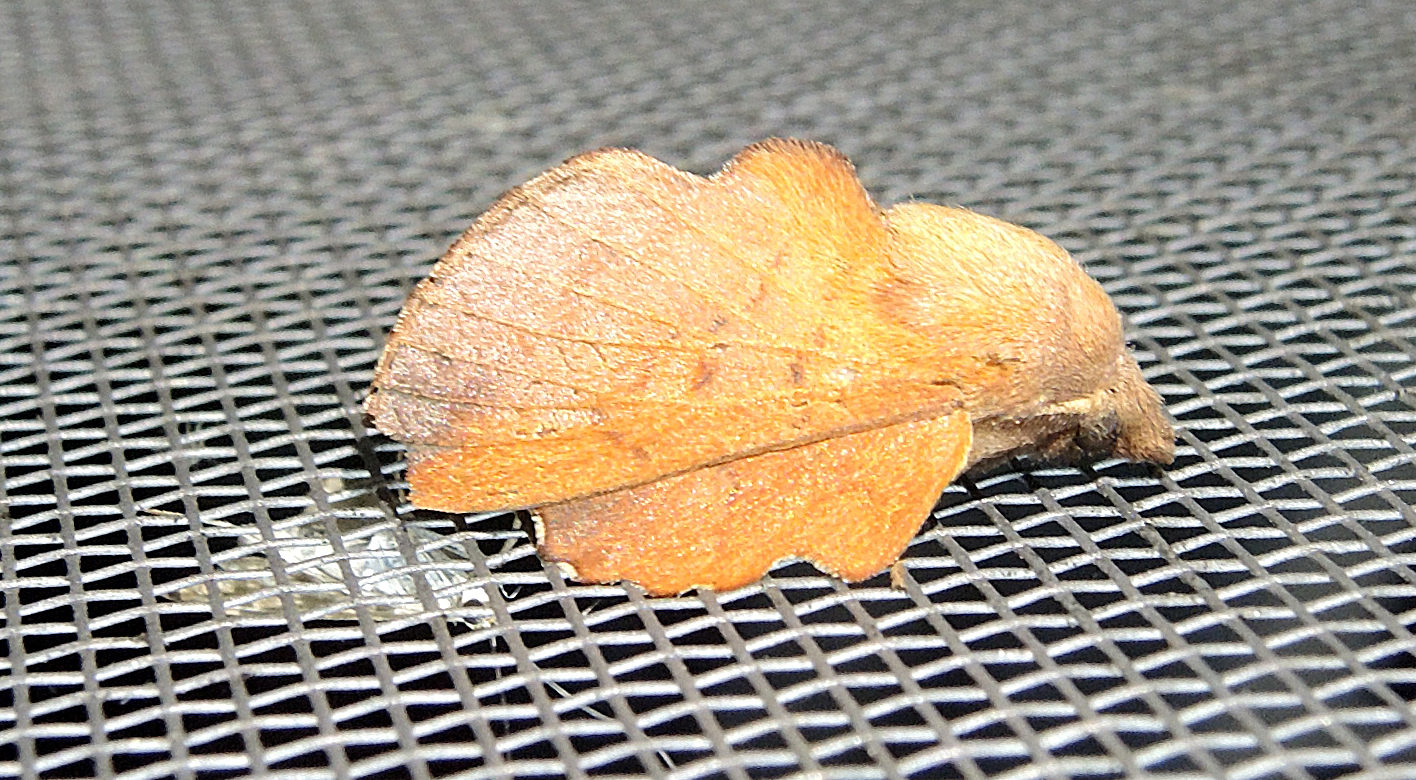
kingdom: Animalia
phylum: Arthropoda
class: Insecta
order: Lepidoptera
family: Lasiocampidae
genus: Phyllodesma
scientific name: Phyllodesma tremulifolia
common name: Aspen lappet
